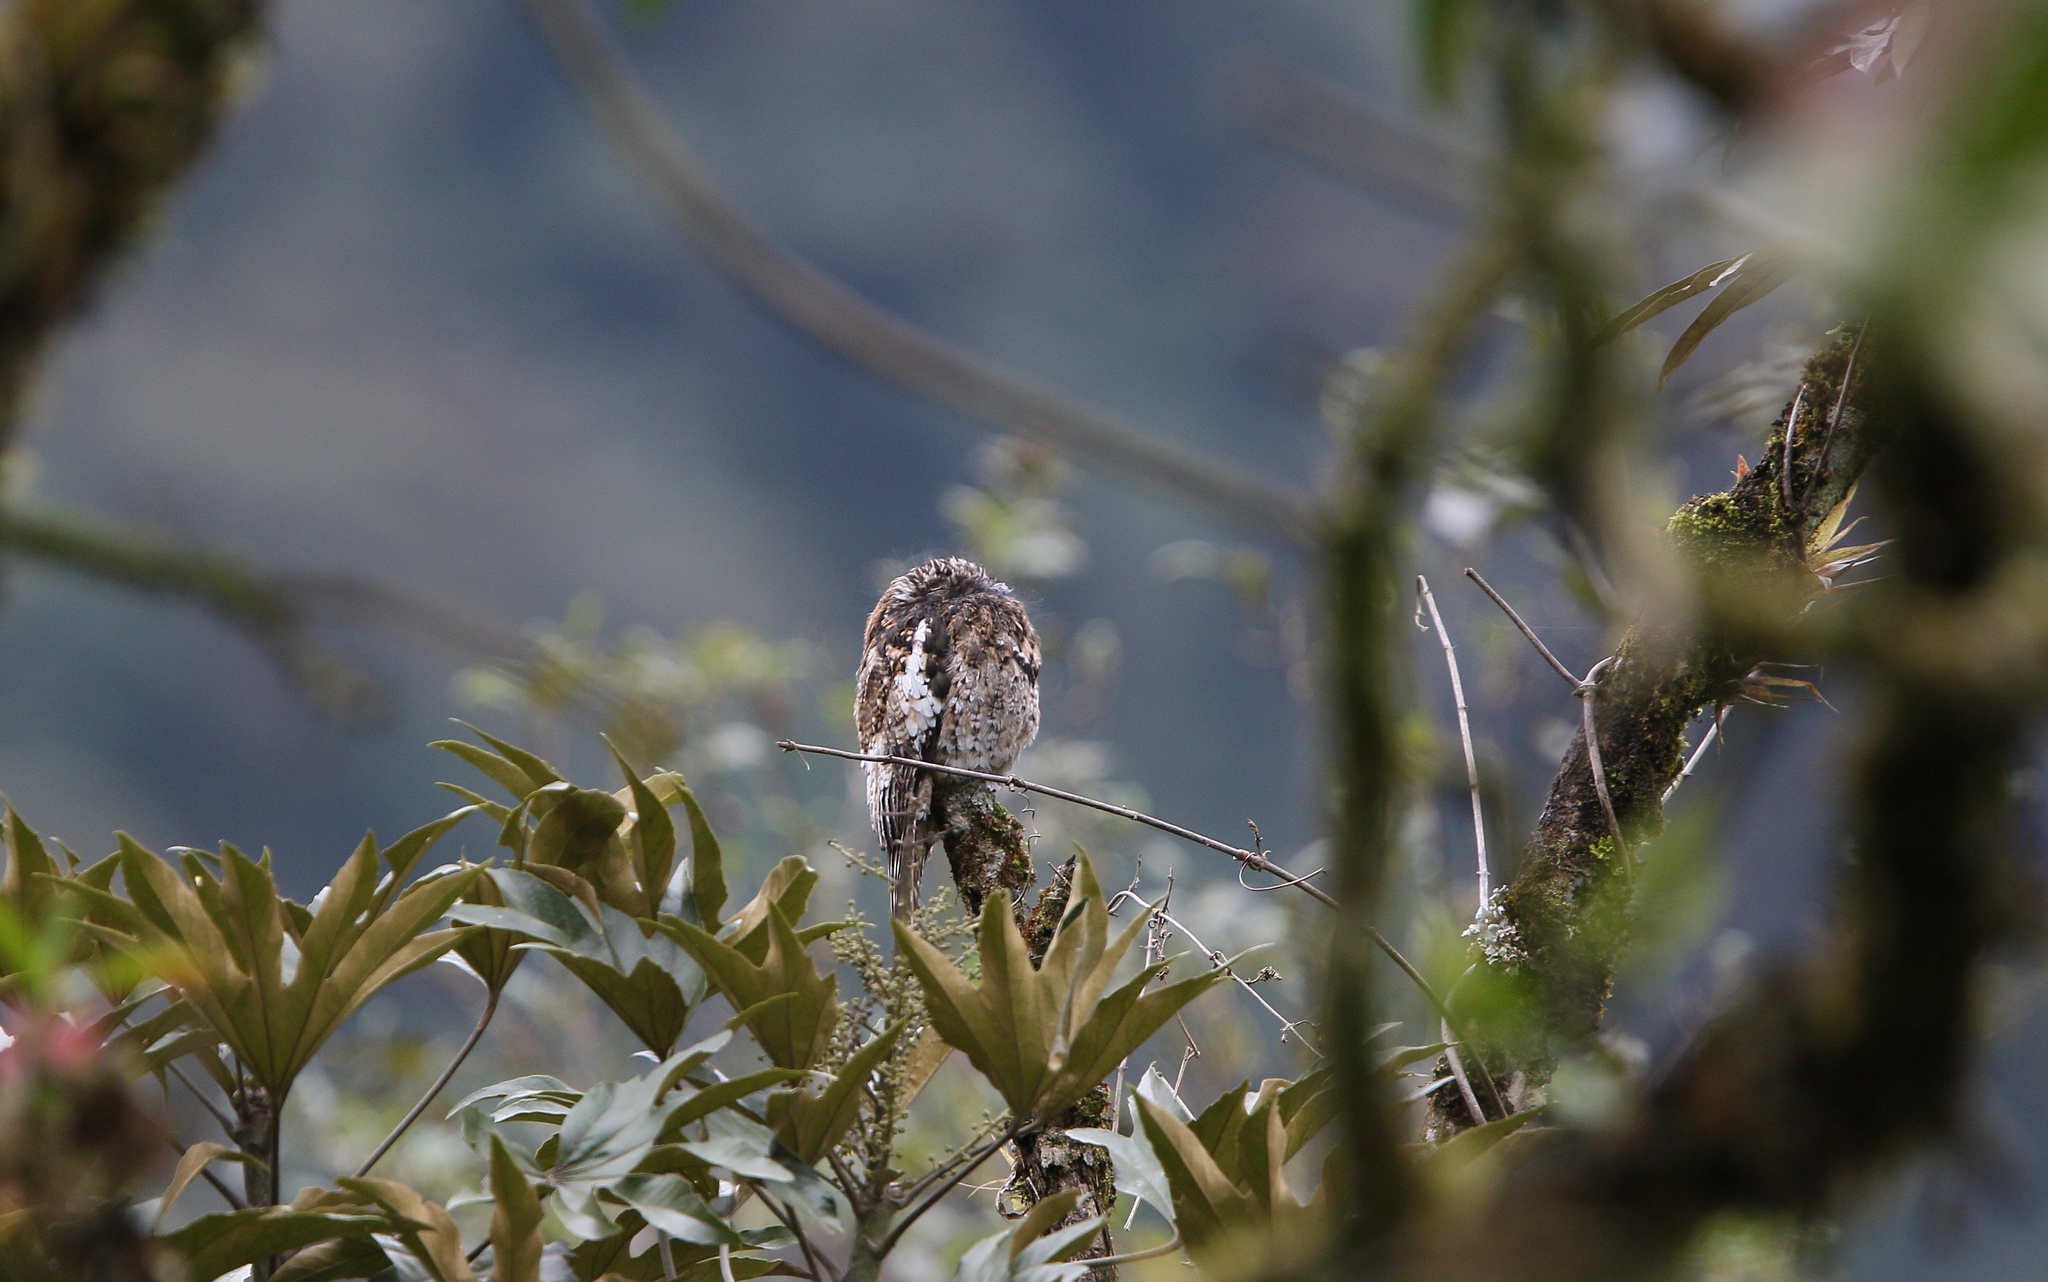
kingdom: Animalia
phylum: Chordata
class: Aves
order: Nyctibiiformes
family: Nyctibiidae
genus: Nyctibius
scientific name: Nyctibius maculosus
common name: Andean potoo
